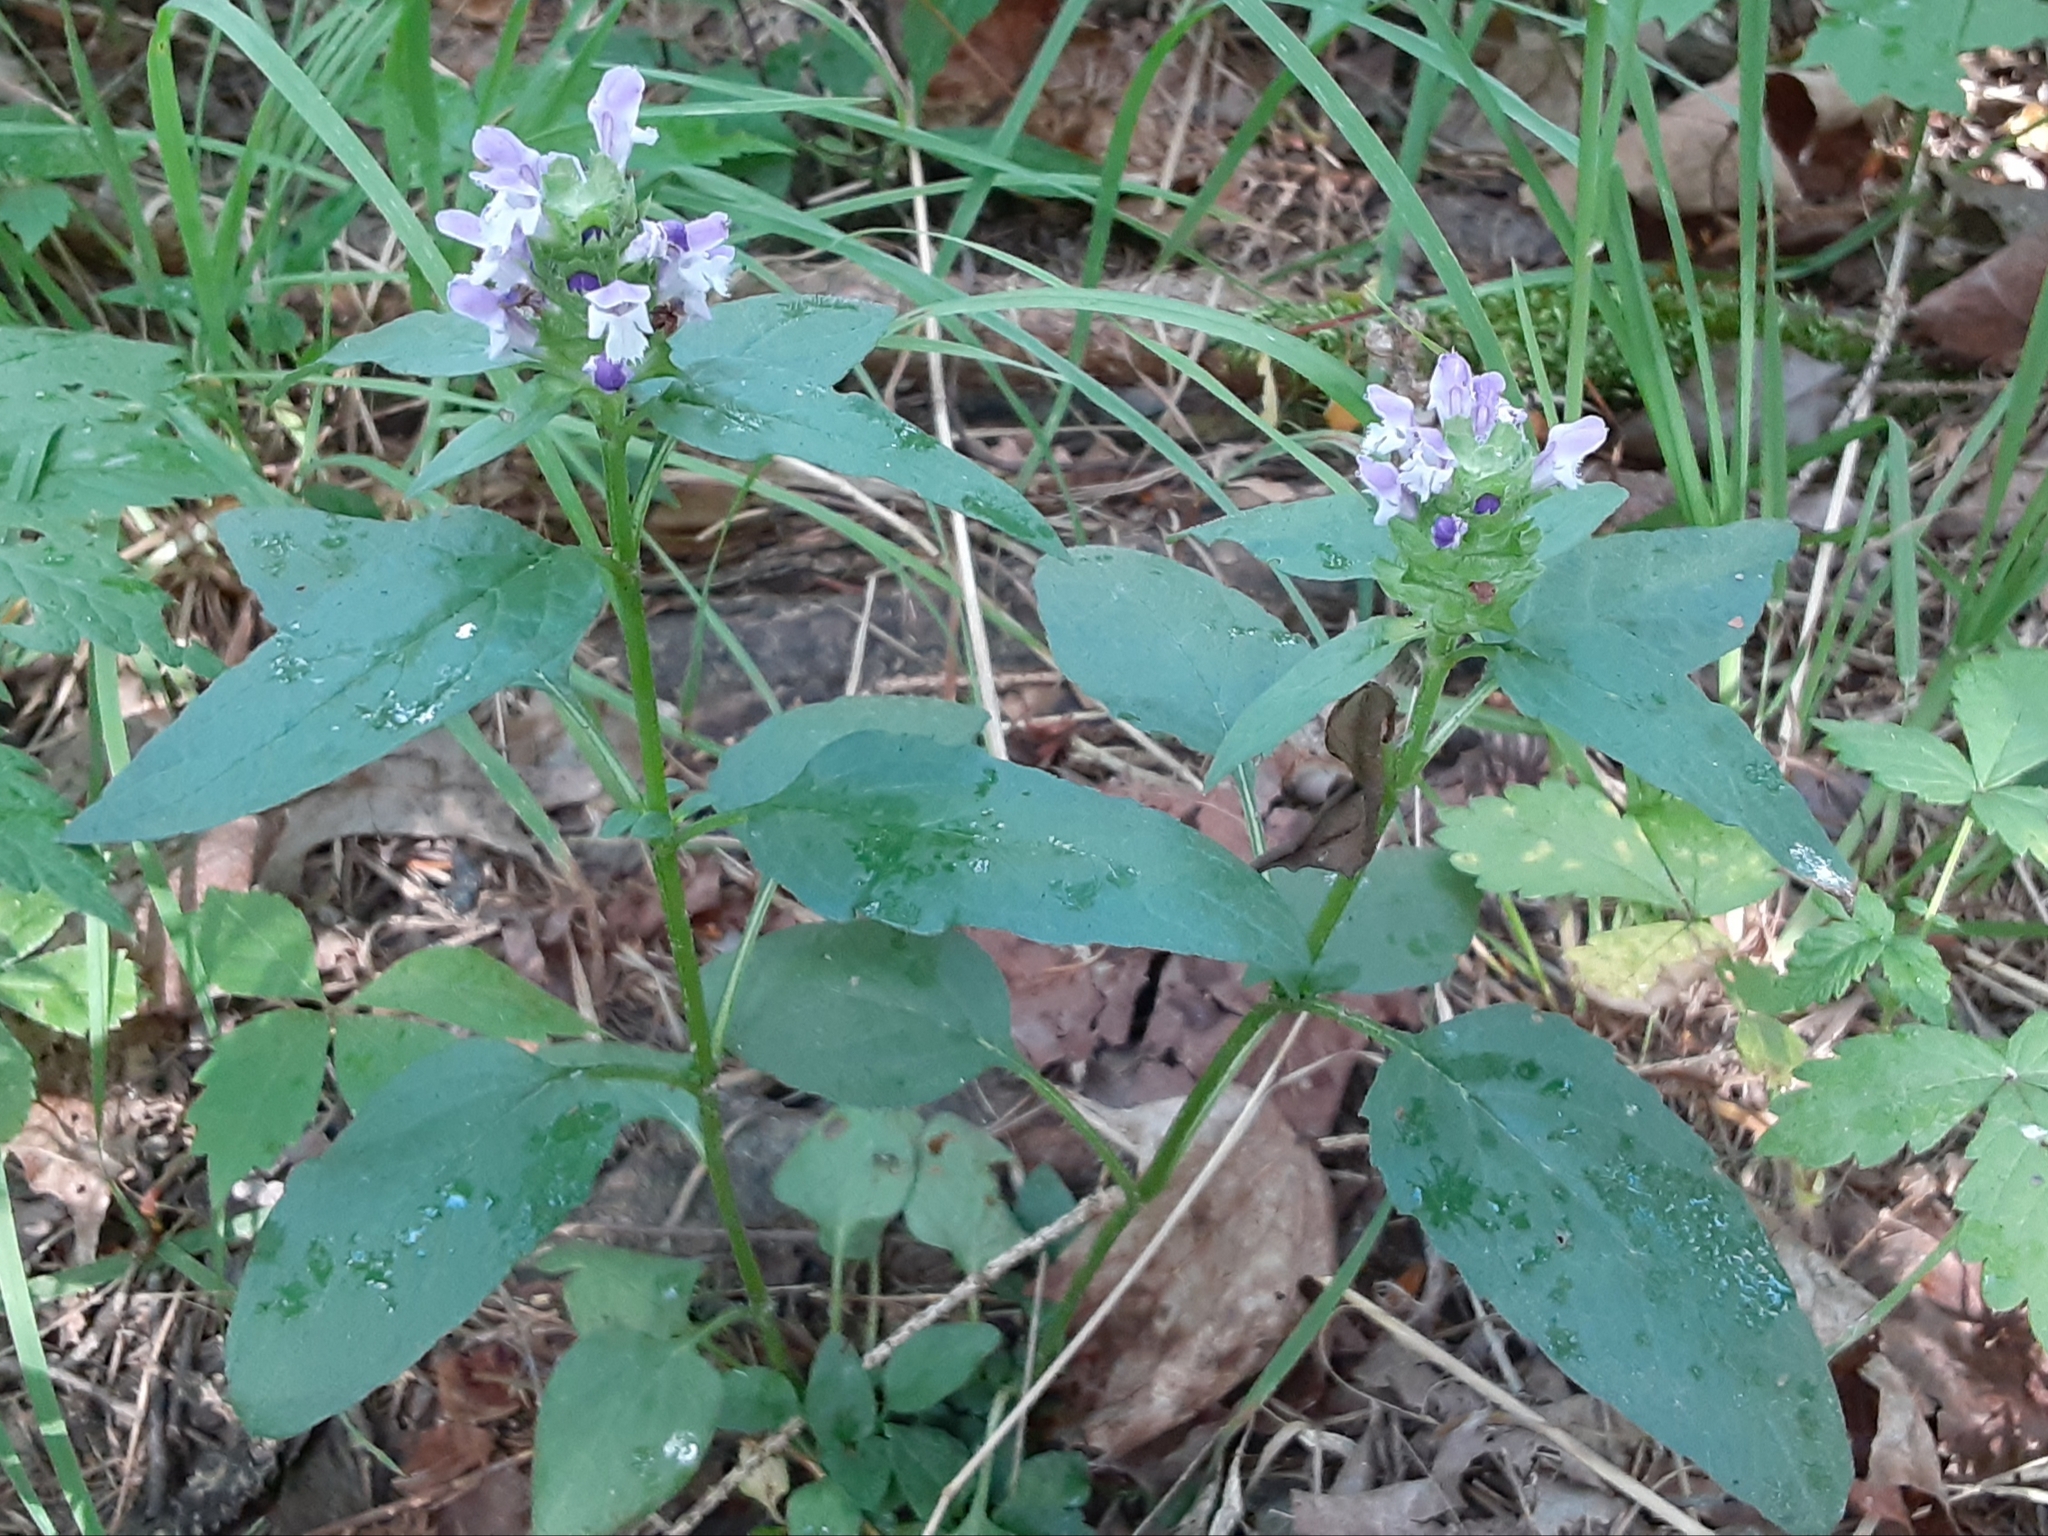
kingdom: Plantae
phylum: Tracheophyta
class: Magnoliopsida
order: Lamiales
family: Lamiaceae
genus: Prunella
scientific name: Prunella vulgaris
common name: Heal-all
